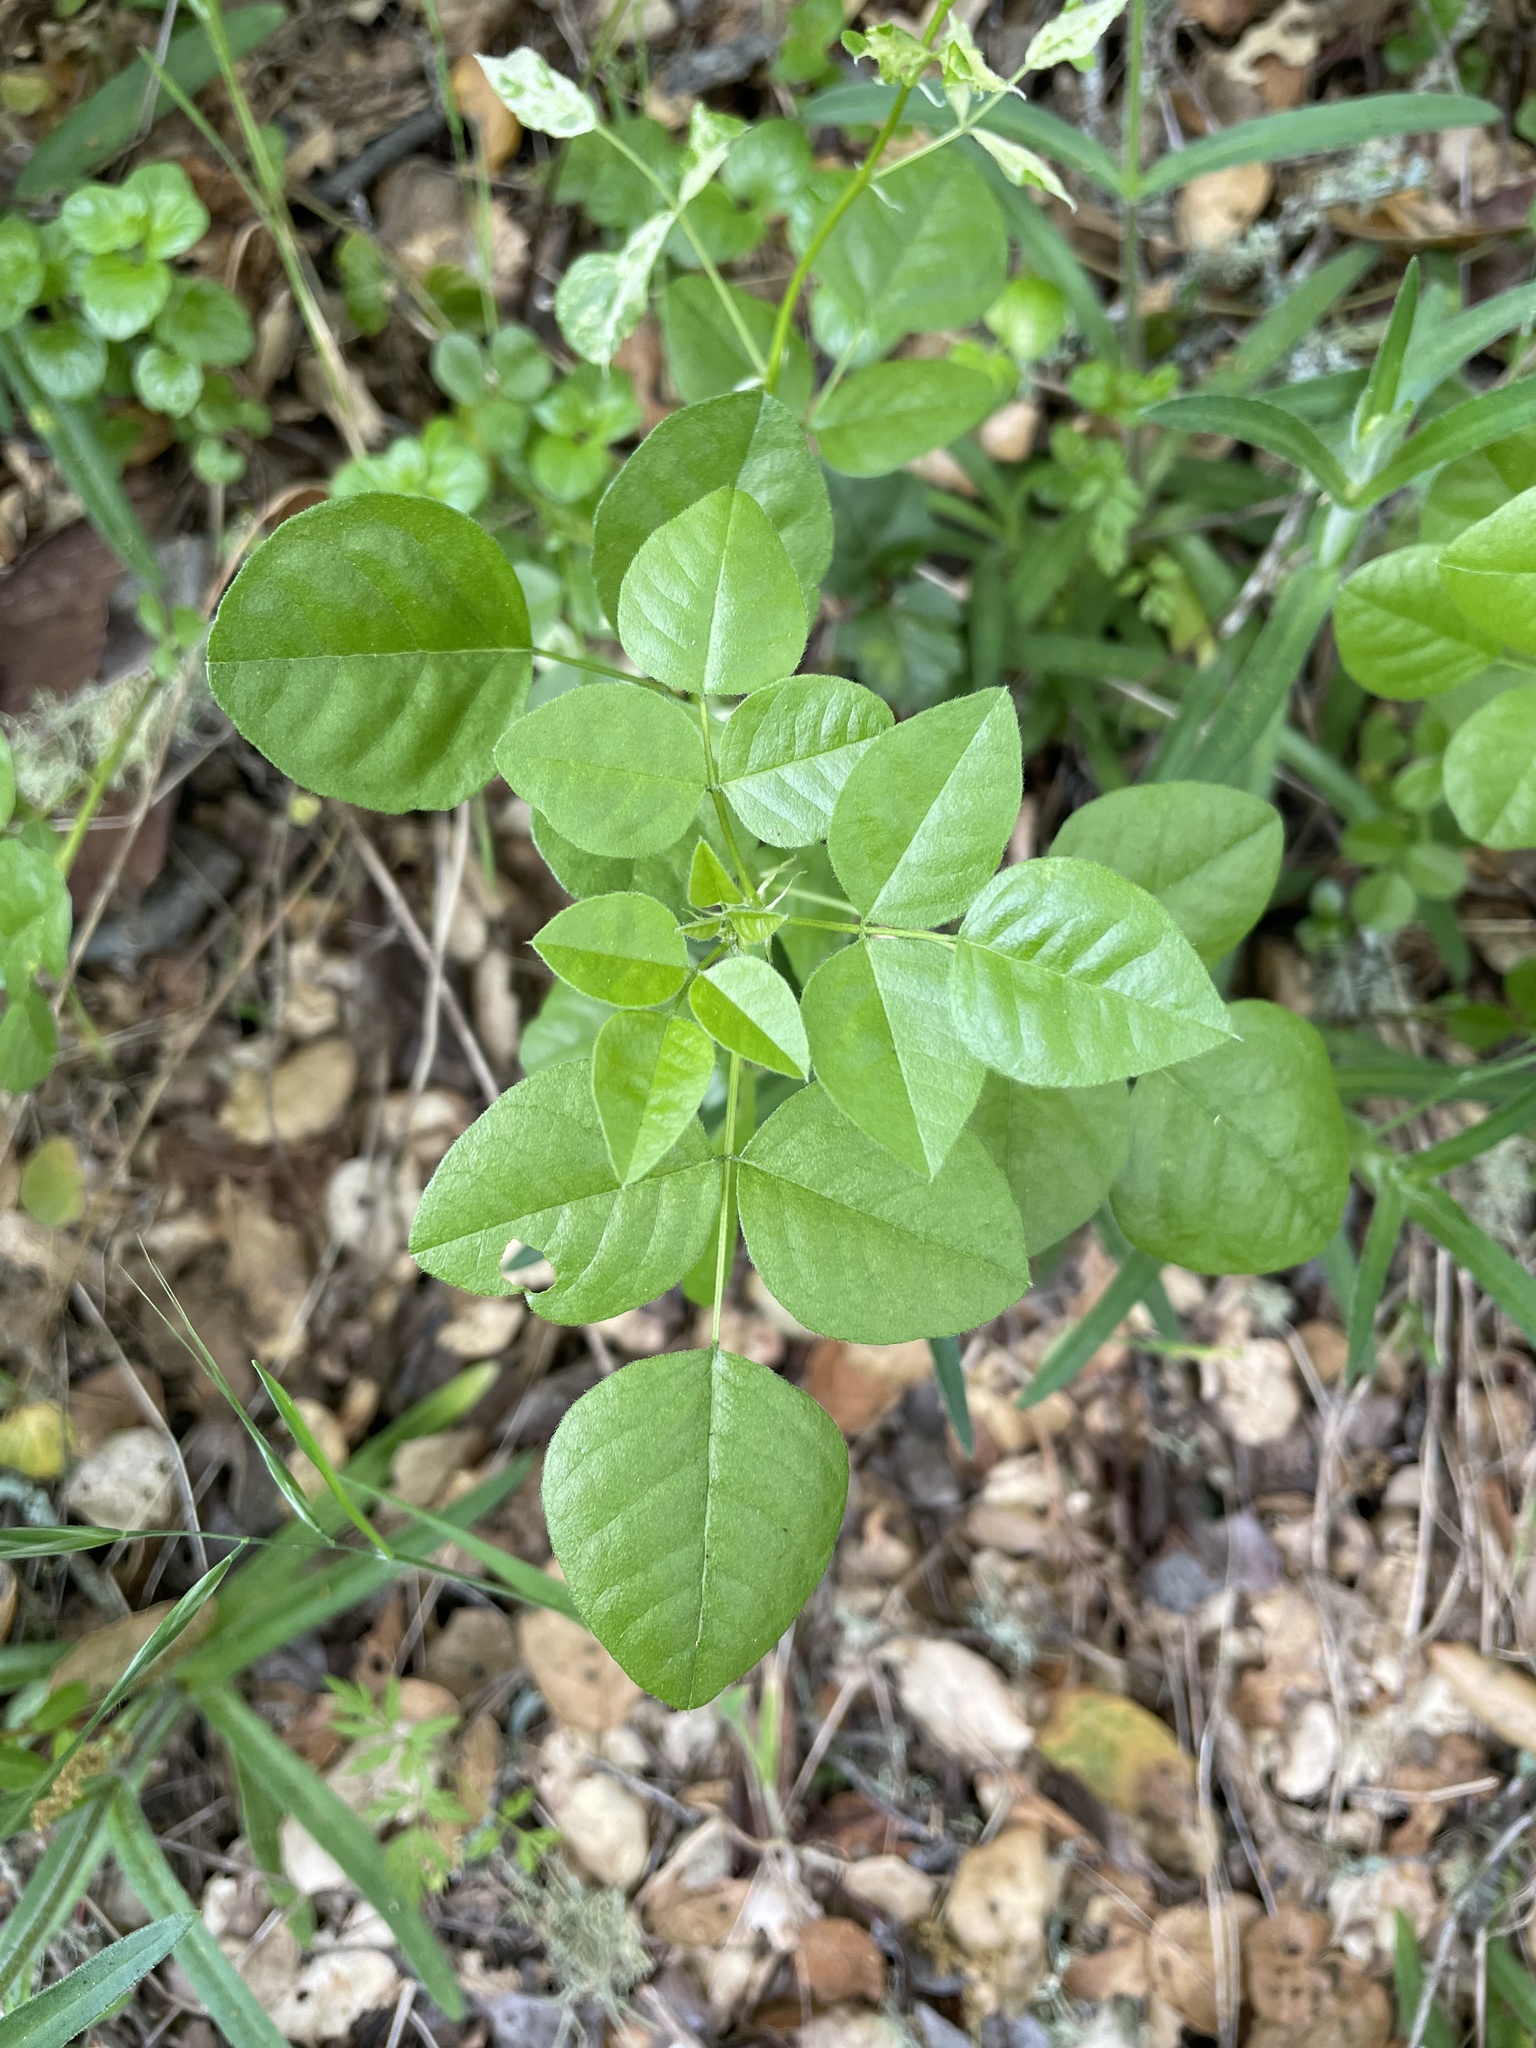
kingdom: Plantae
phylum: Tracheophyta
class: Magnoliopsida
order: Fabales
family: Fabaceae
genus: Rupertia
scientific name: Rupertia physodes
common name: California-tea
